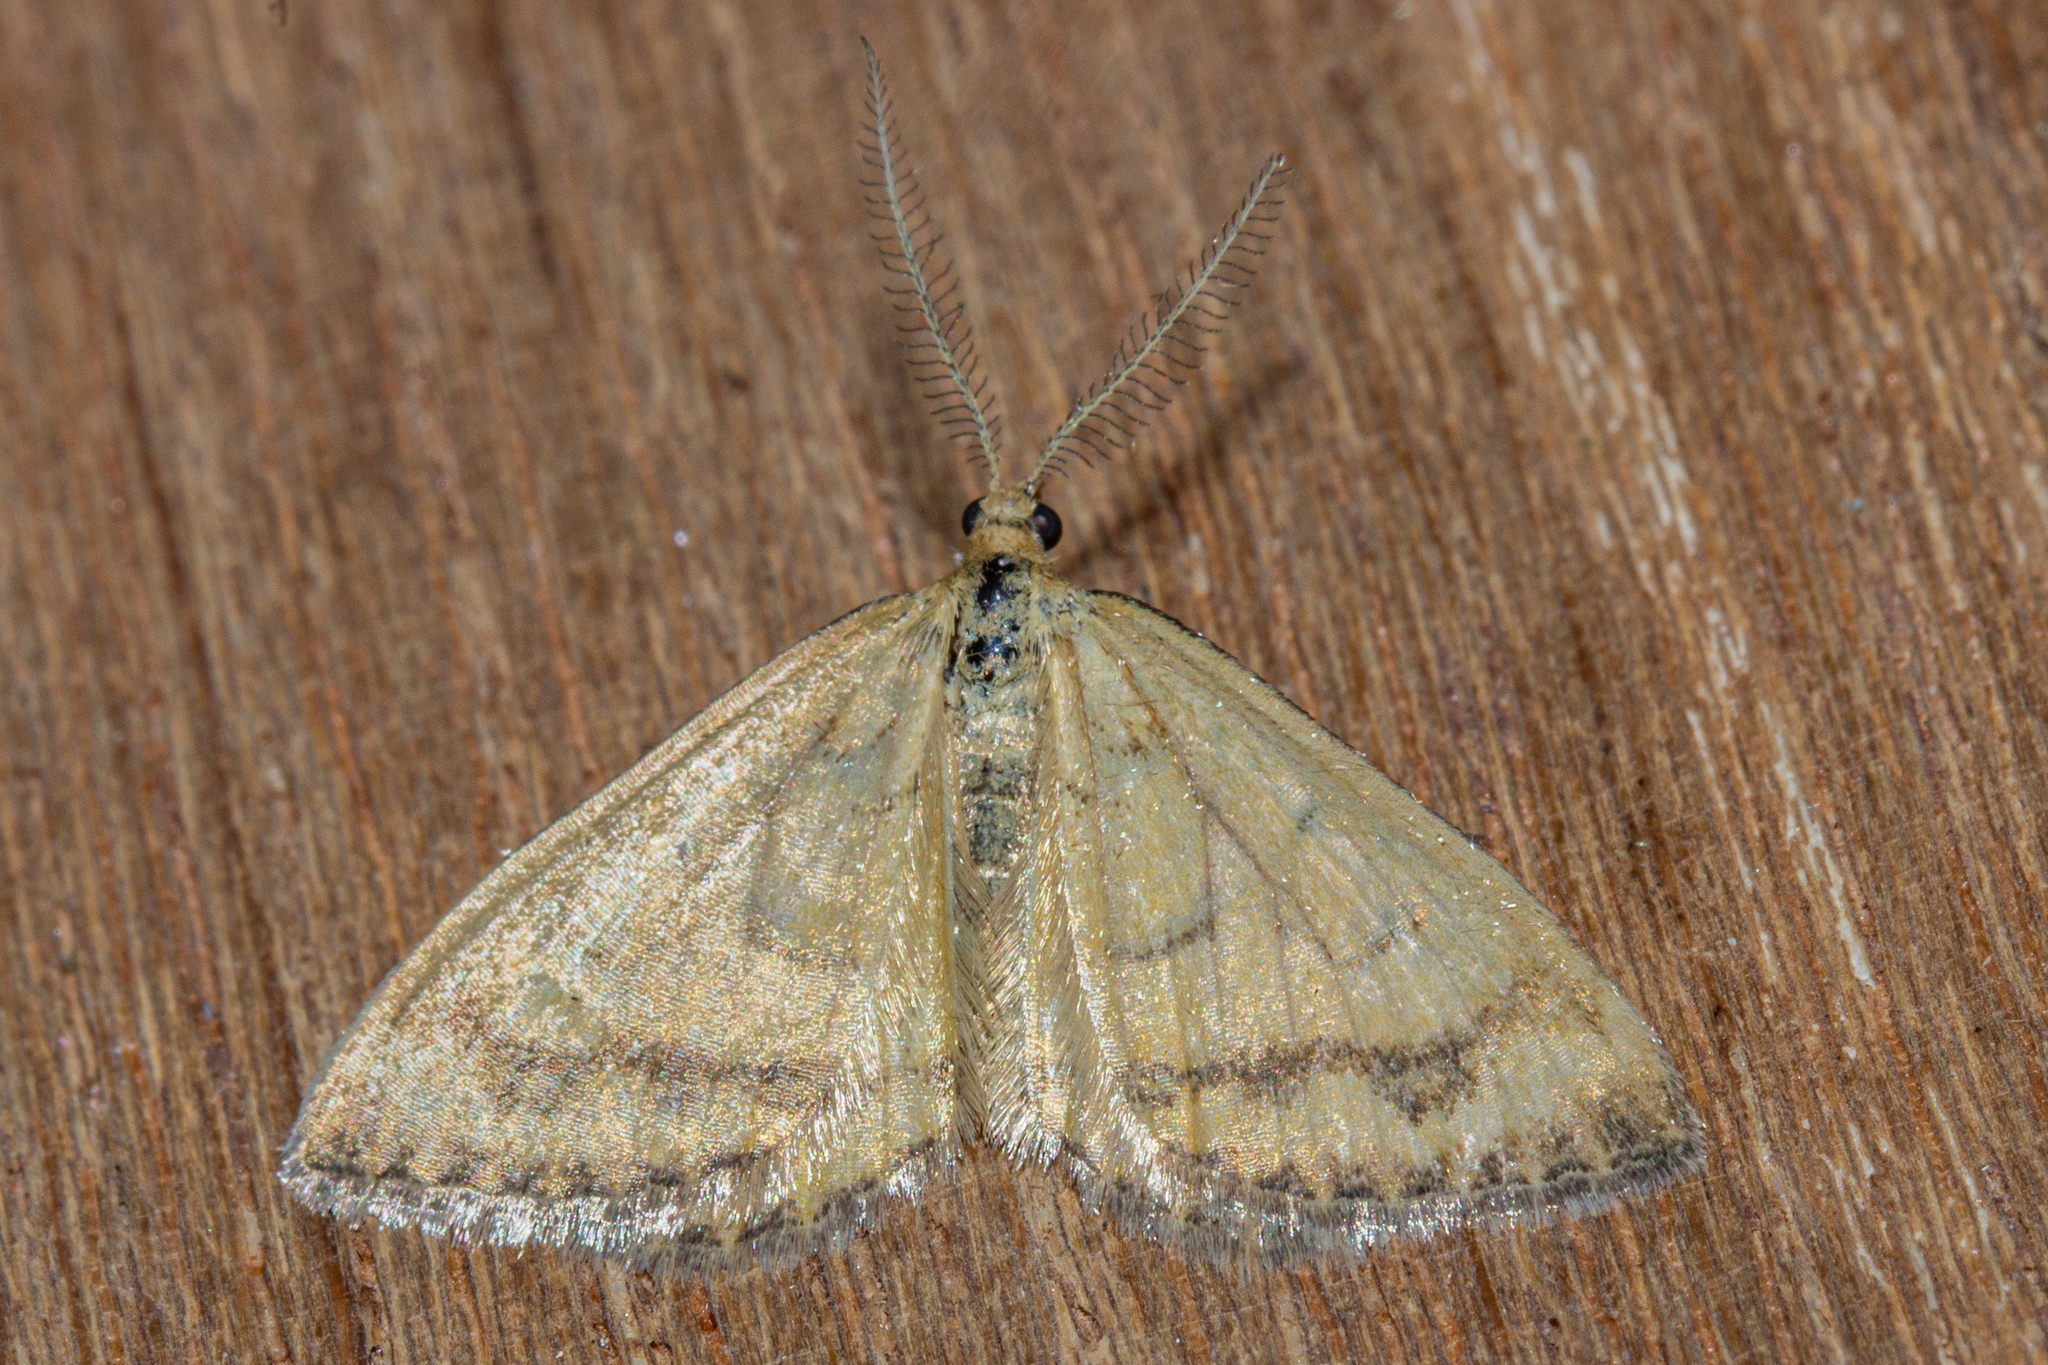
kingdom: Animalia
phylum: Arthropoda
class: Insecta
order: Lepidoptera
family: Geometridae
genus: Asaphodes
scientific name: Asaphodes abrogata
